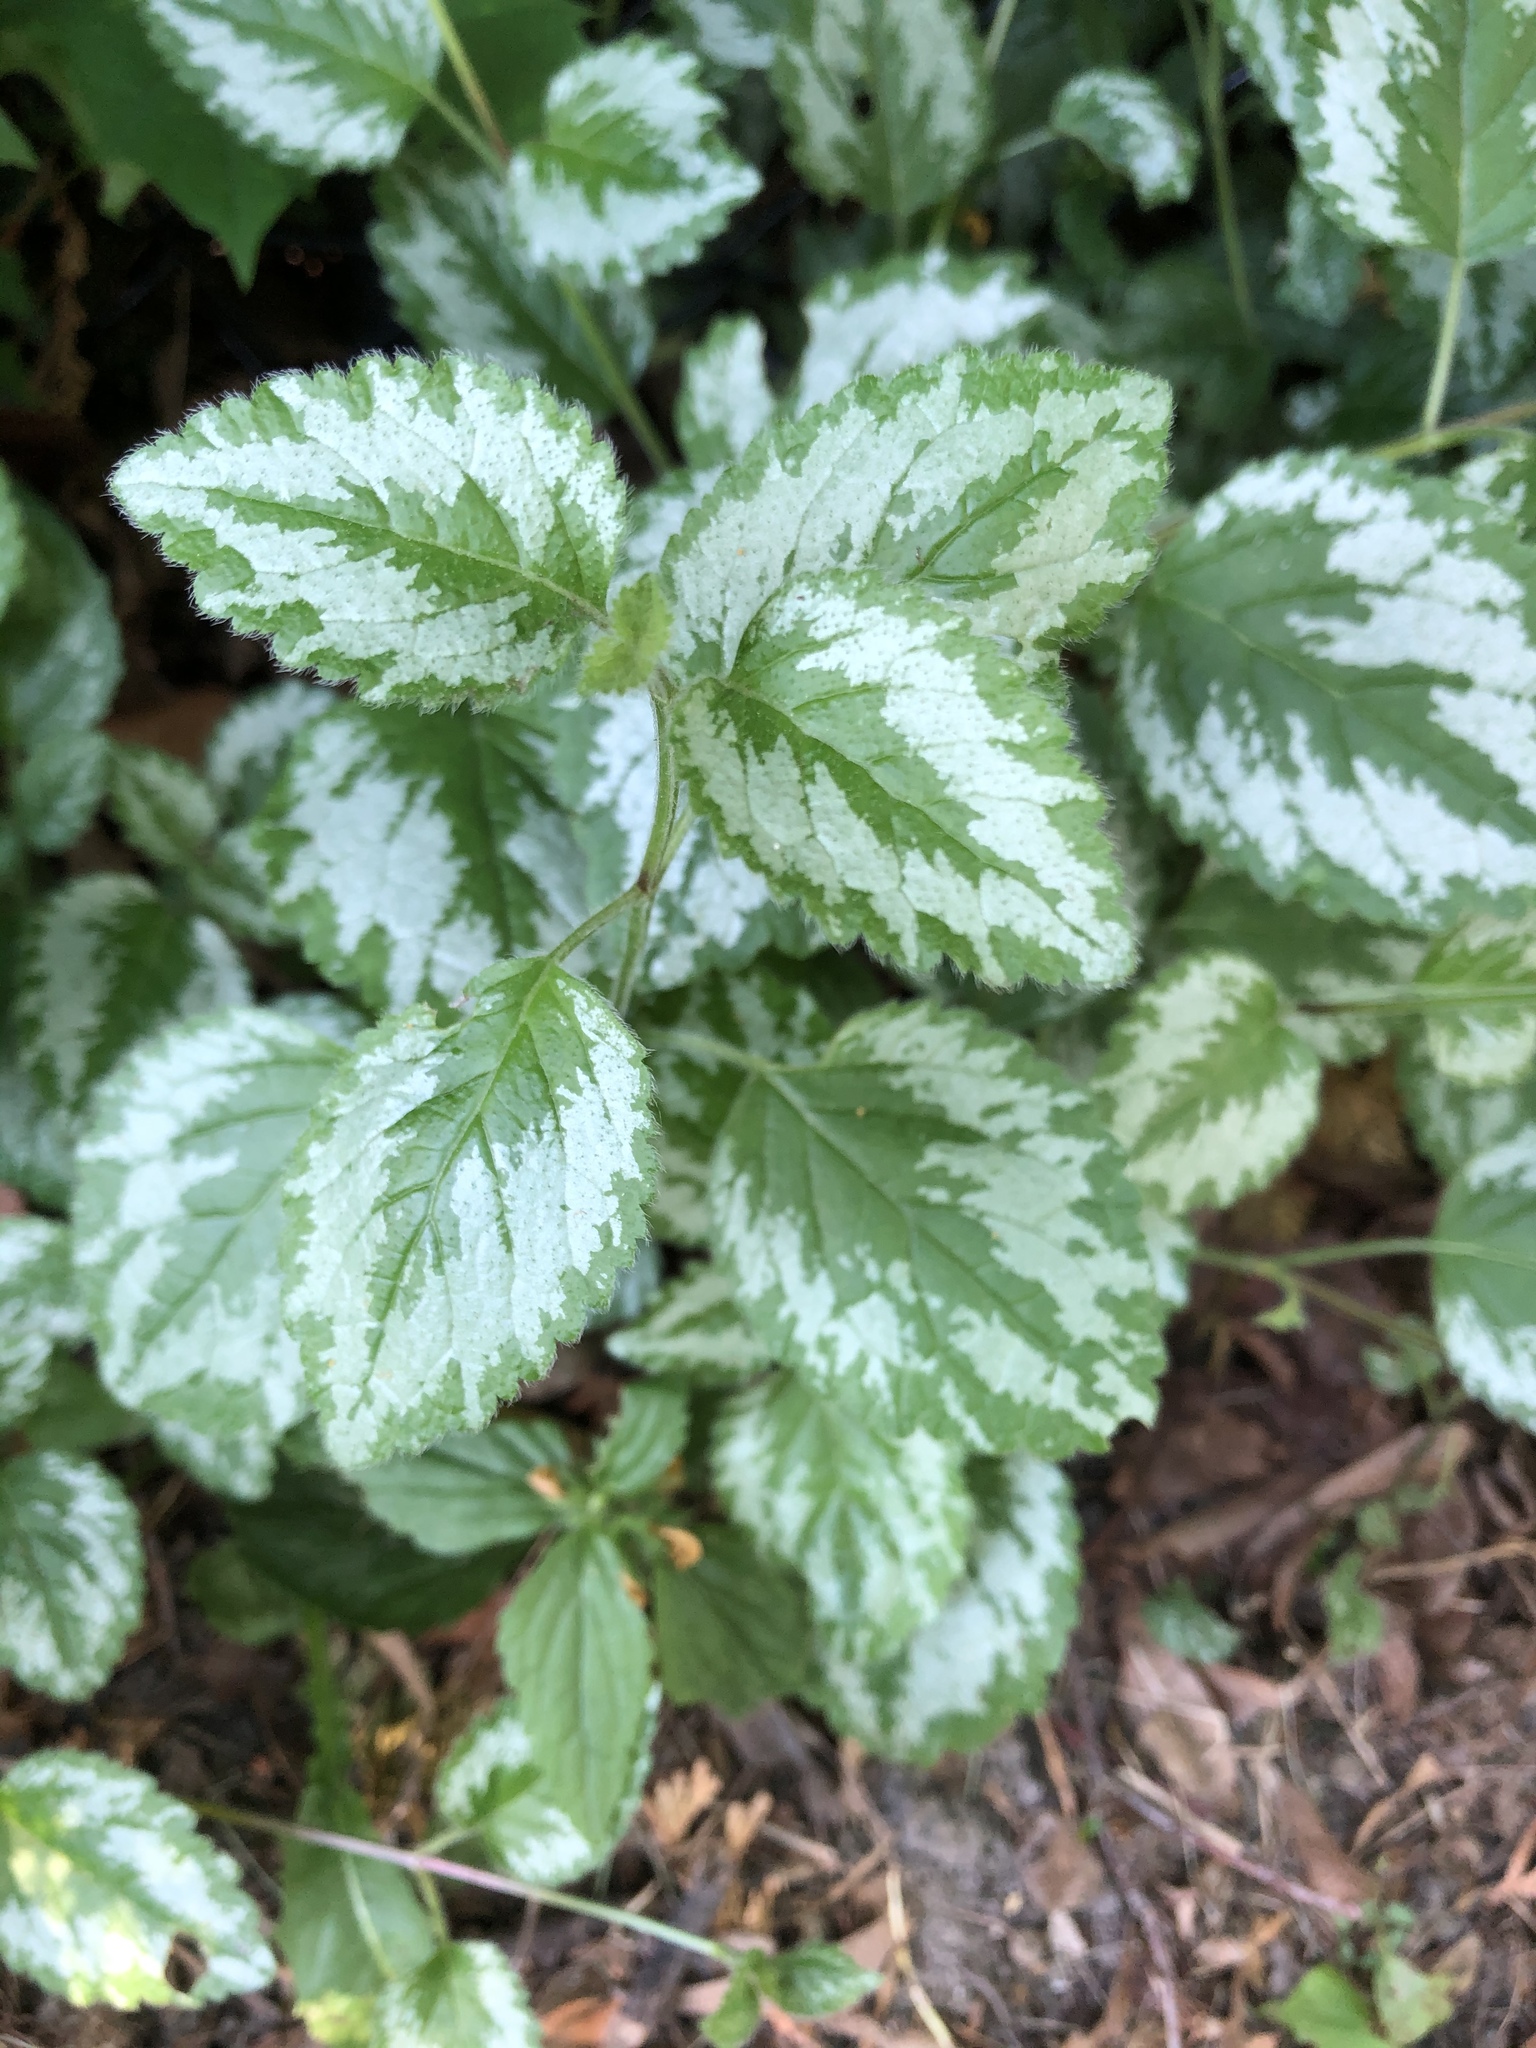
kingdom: Plantae
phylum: Tracheophyta
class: Magnoliopsida
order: Lamiales
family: Lamiaceae
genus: Lamium
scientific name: Lamium galeobdolon
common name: Yellow archangel
